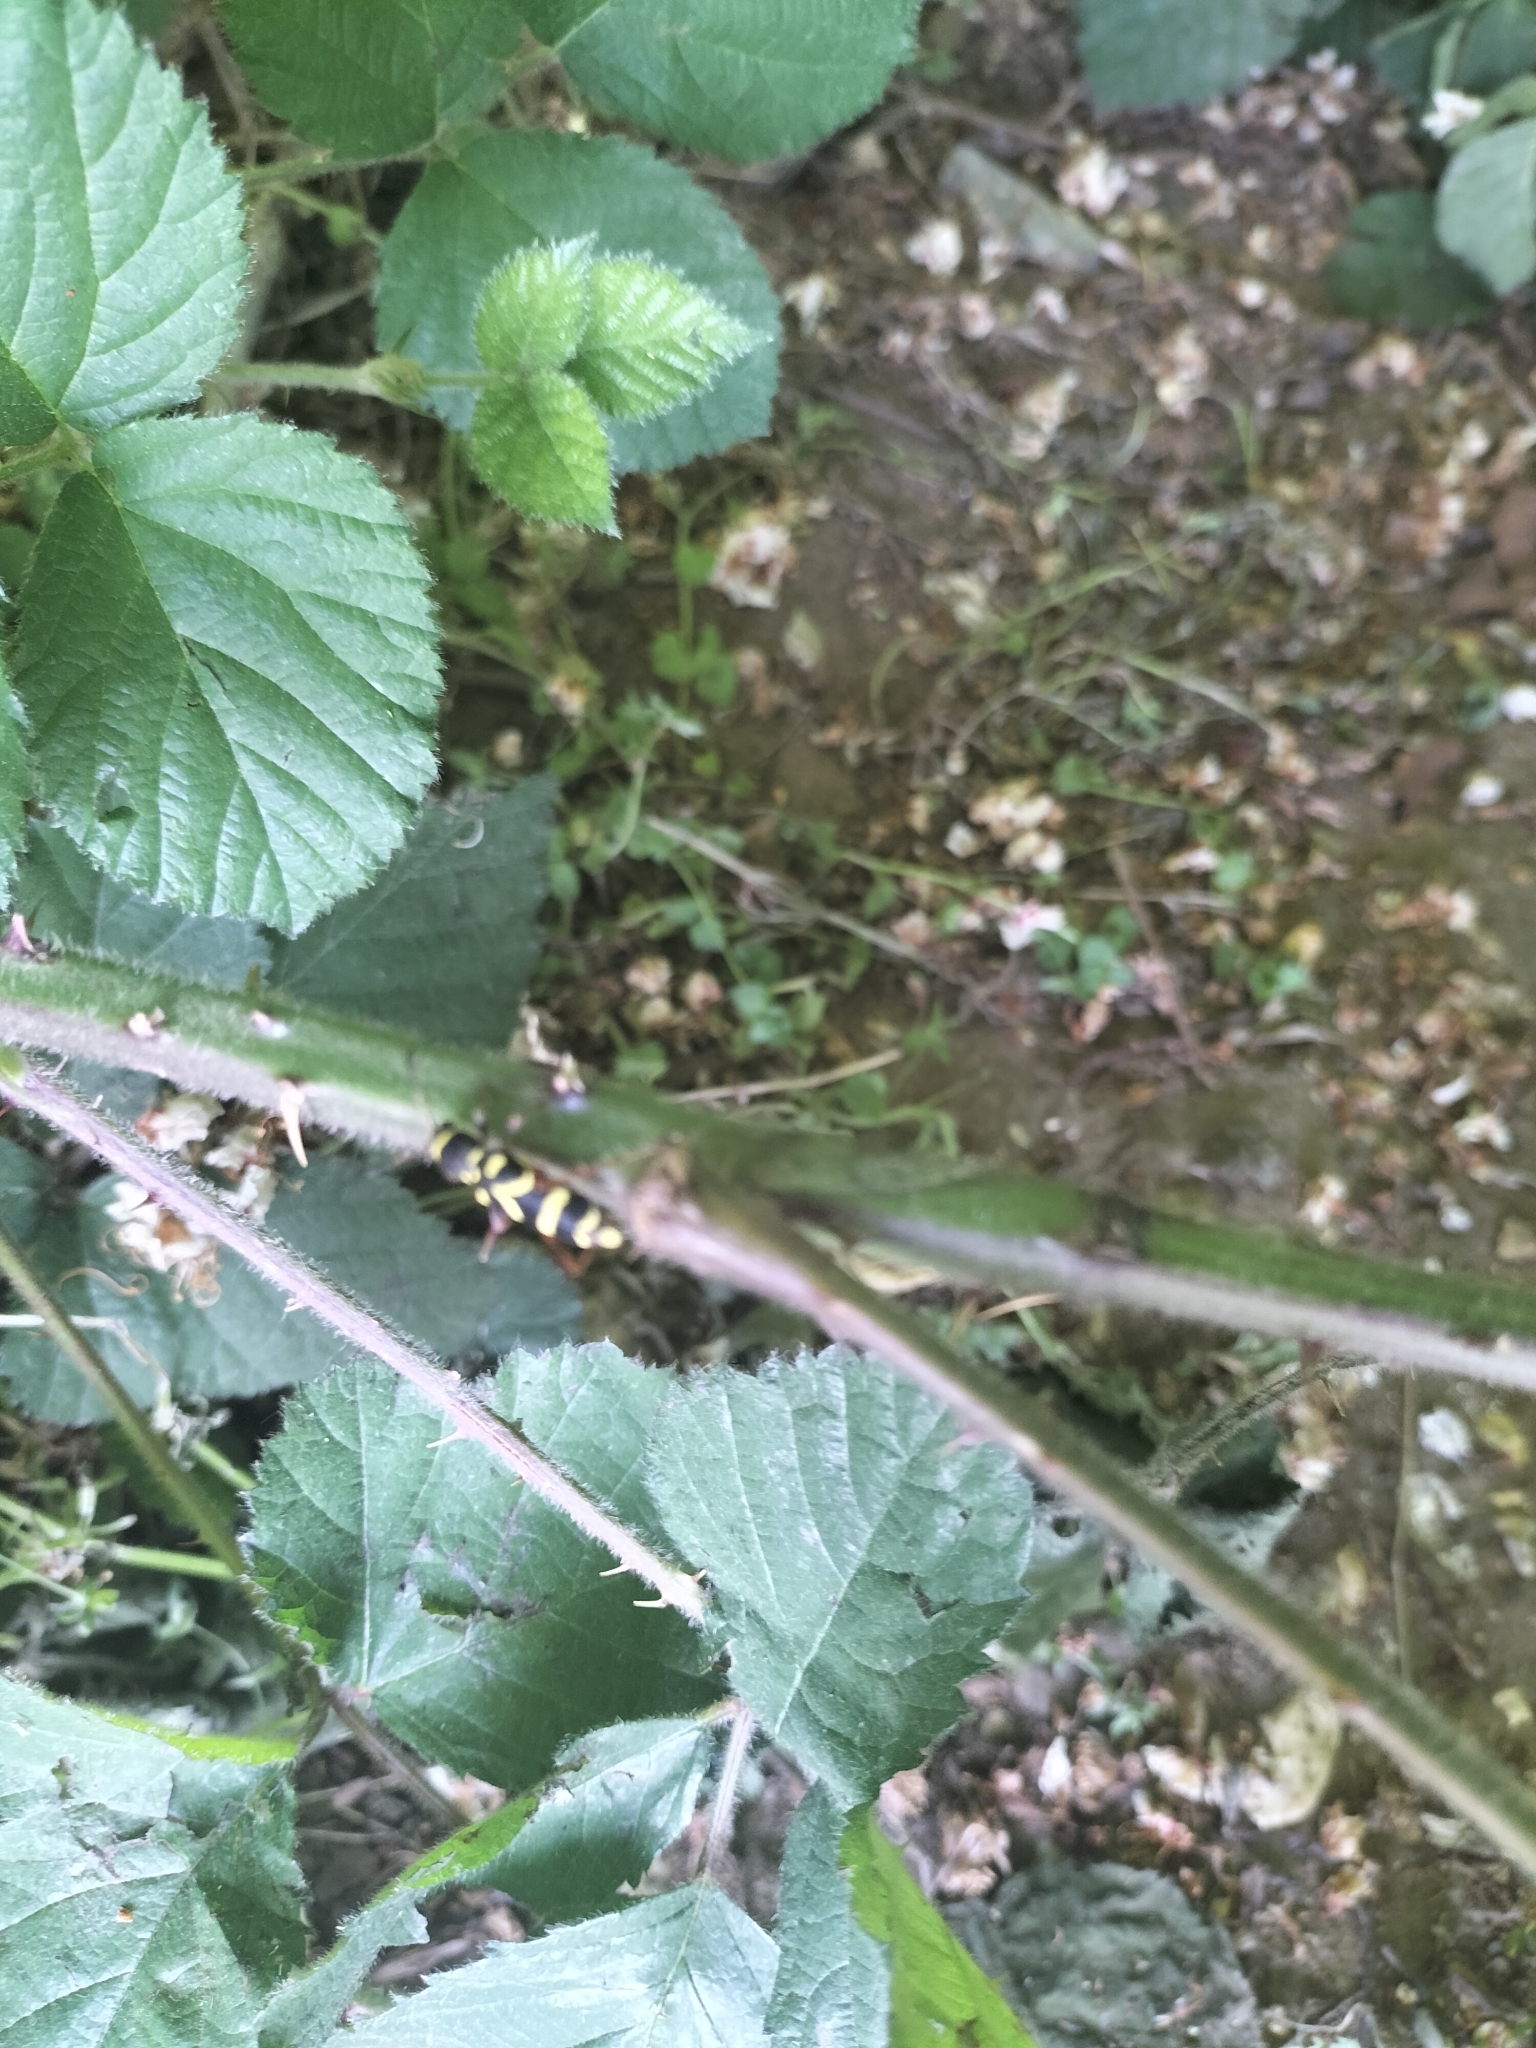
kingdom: Animalia
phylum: Arthropoda
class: Insecta
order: Coleoptera
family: Cerambycidae
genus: Clytus
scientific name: Clytus arietis
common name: Wasp beetle
